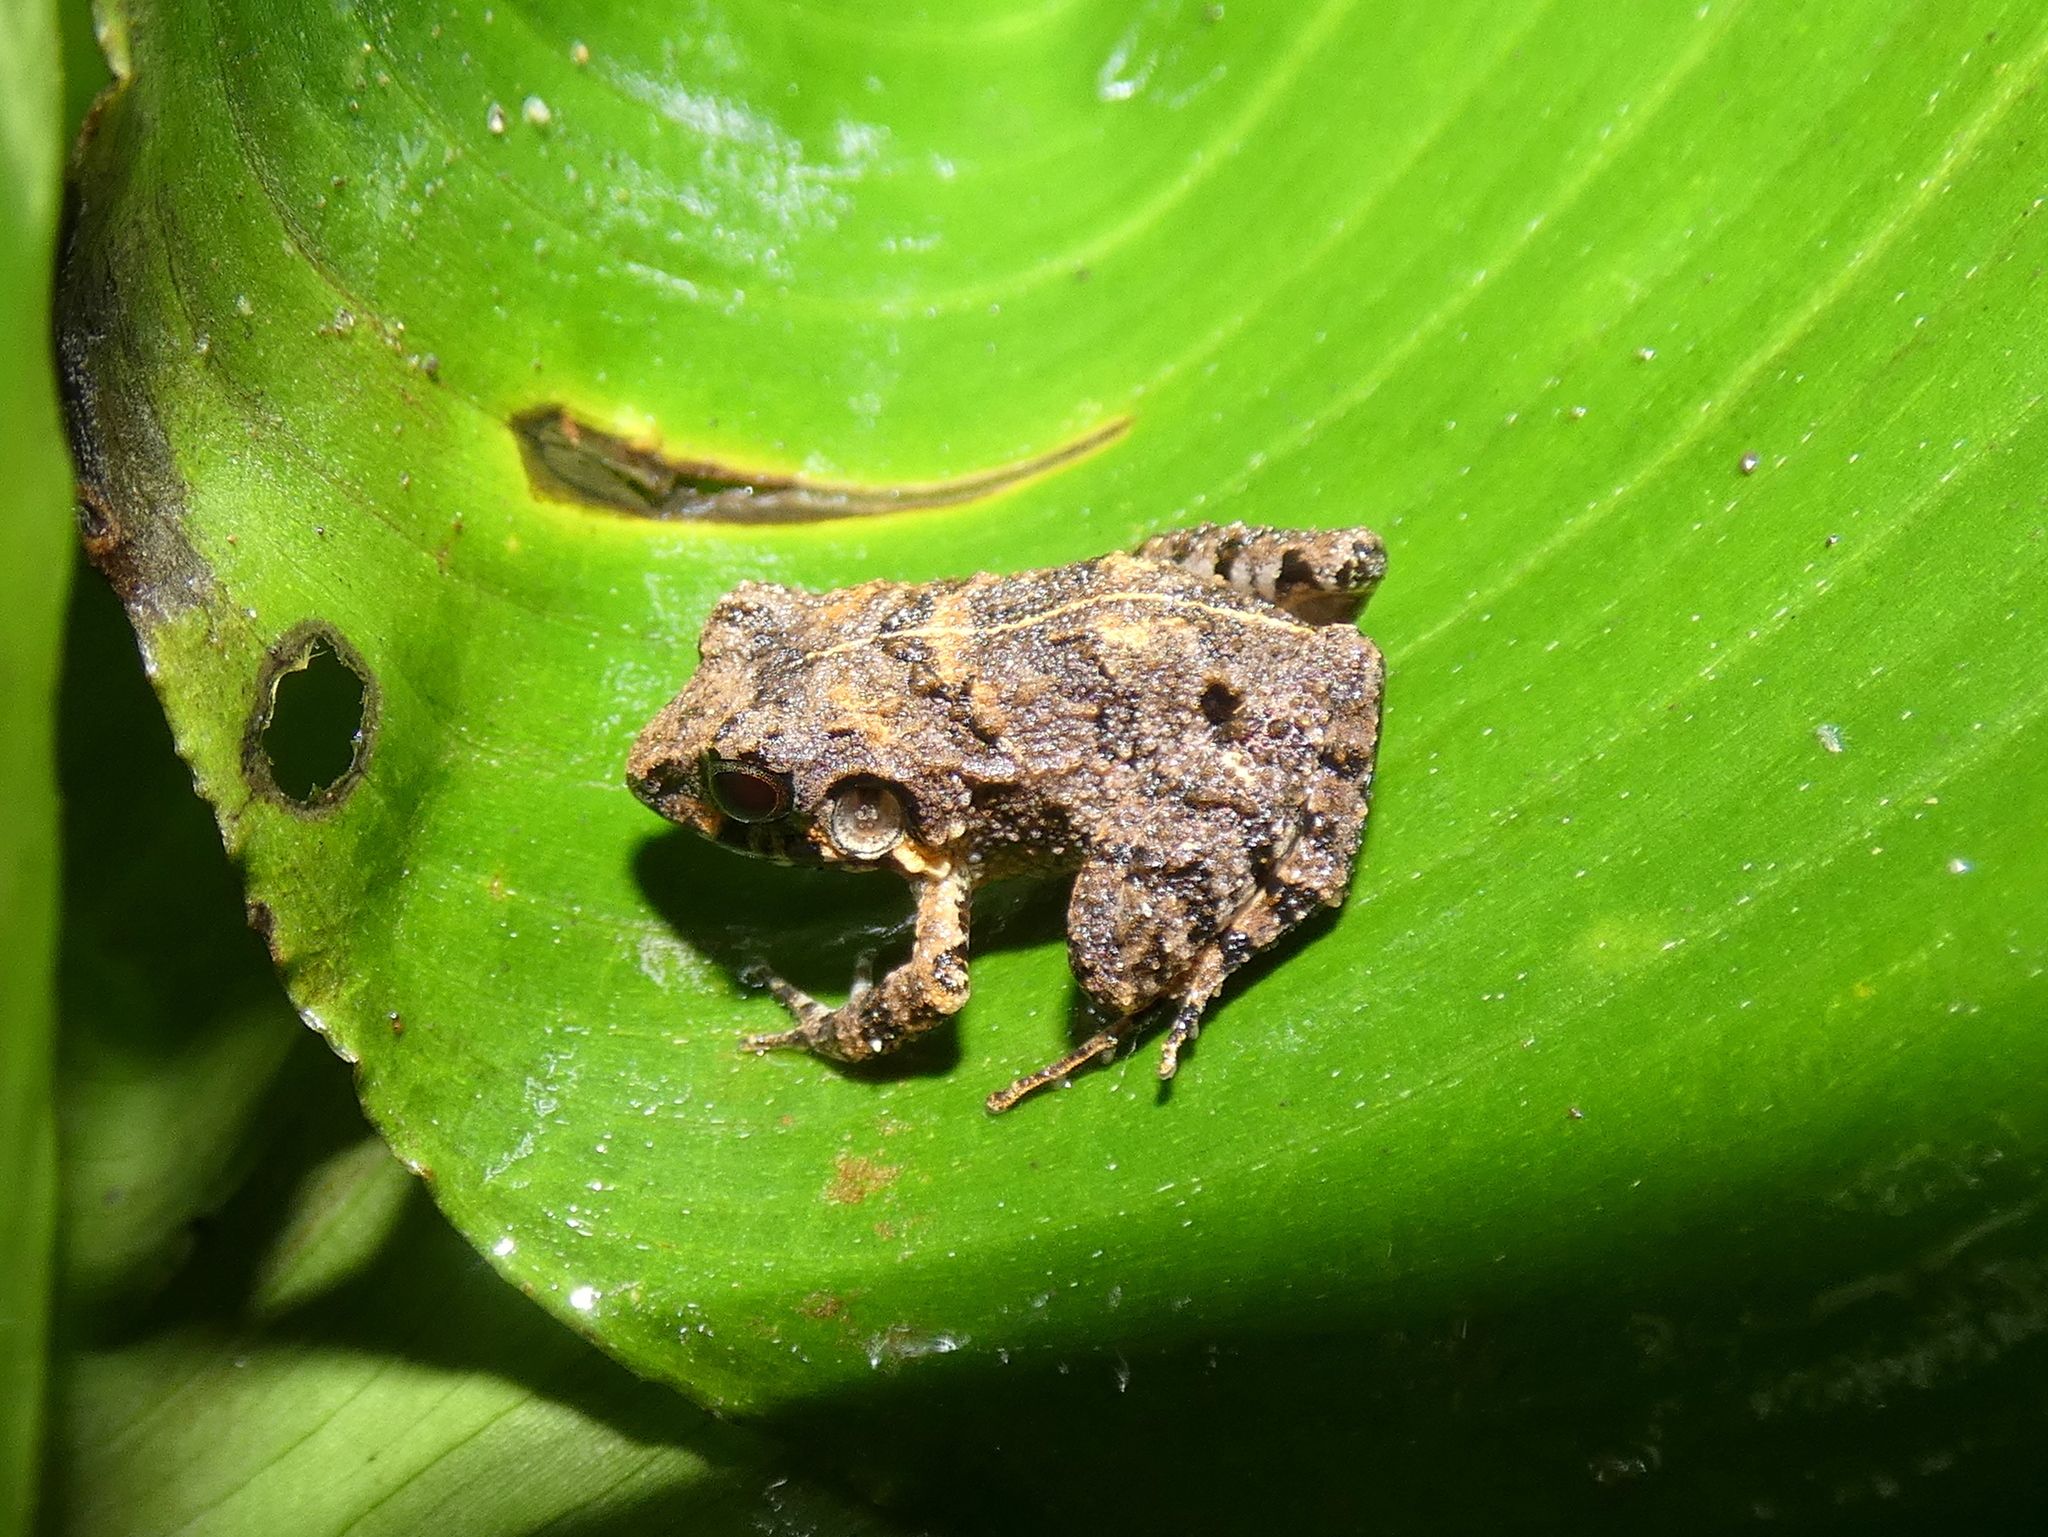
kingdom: Animalia
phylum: Chordata
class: Amphibia
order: Anura
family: Craugastoridae
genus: Craugastor
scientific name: Craugastor polyptychus
